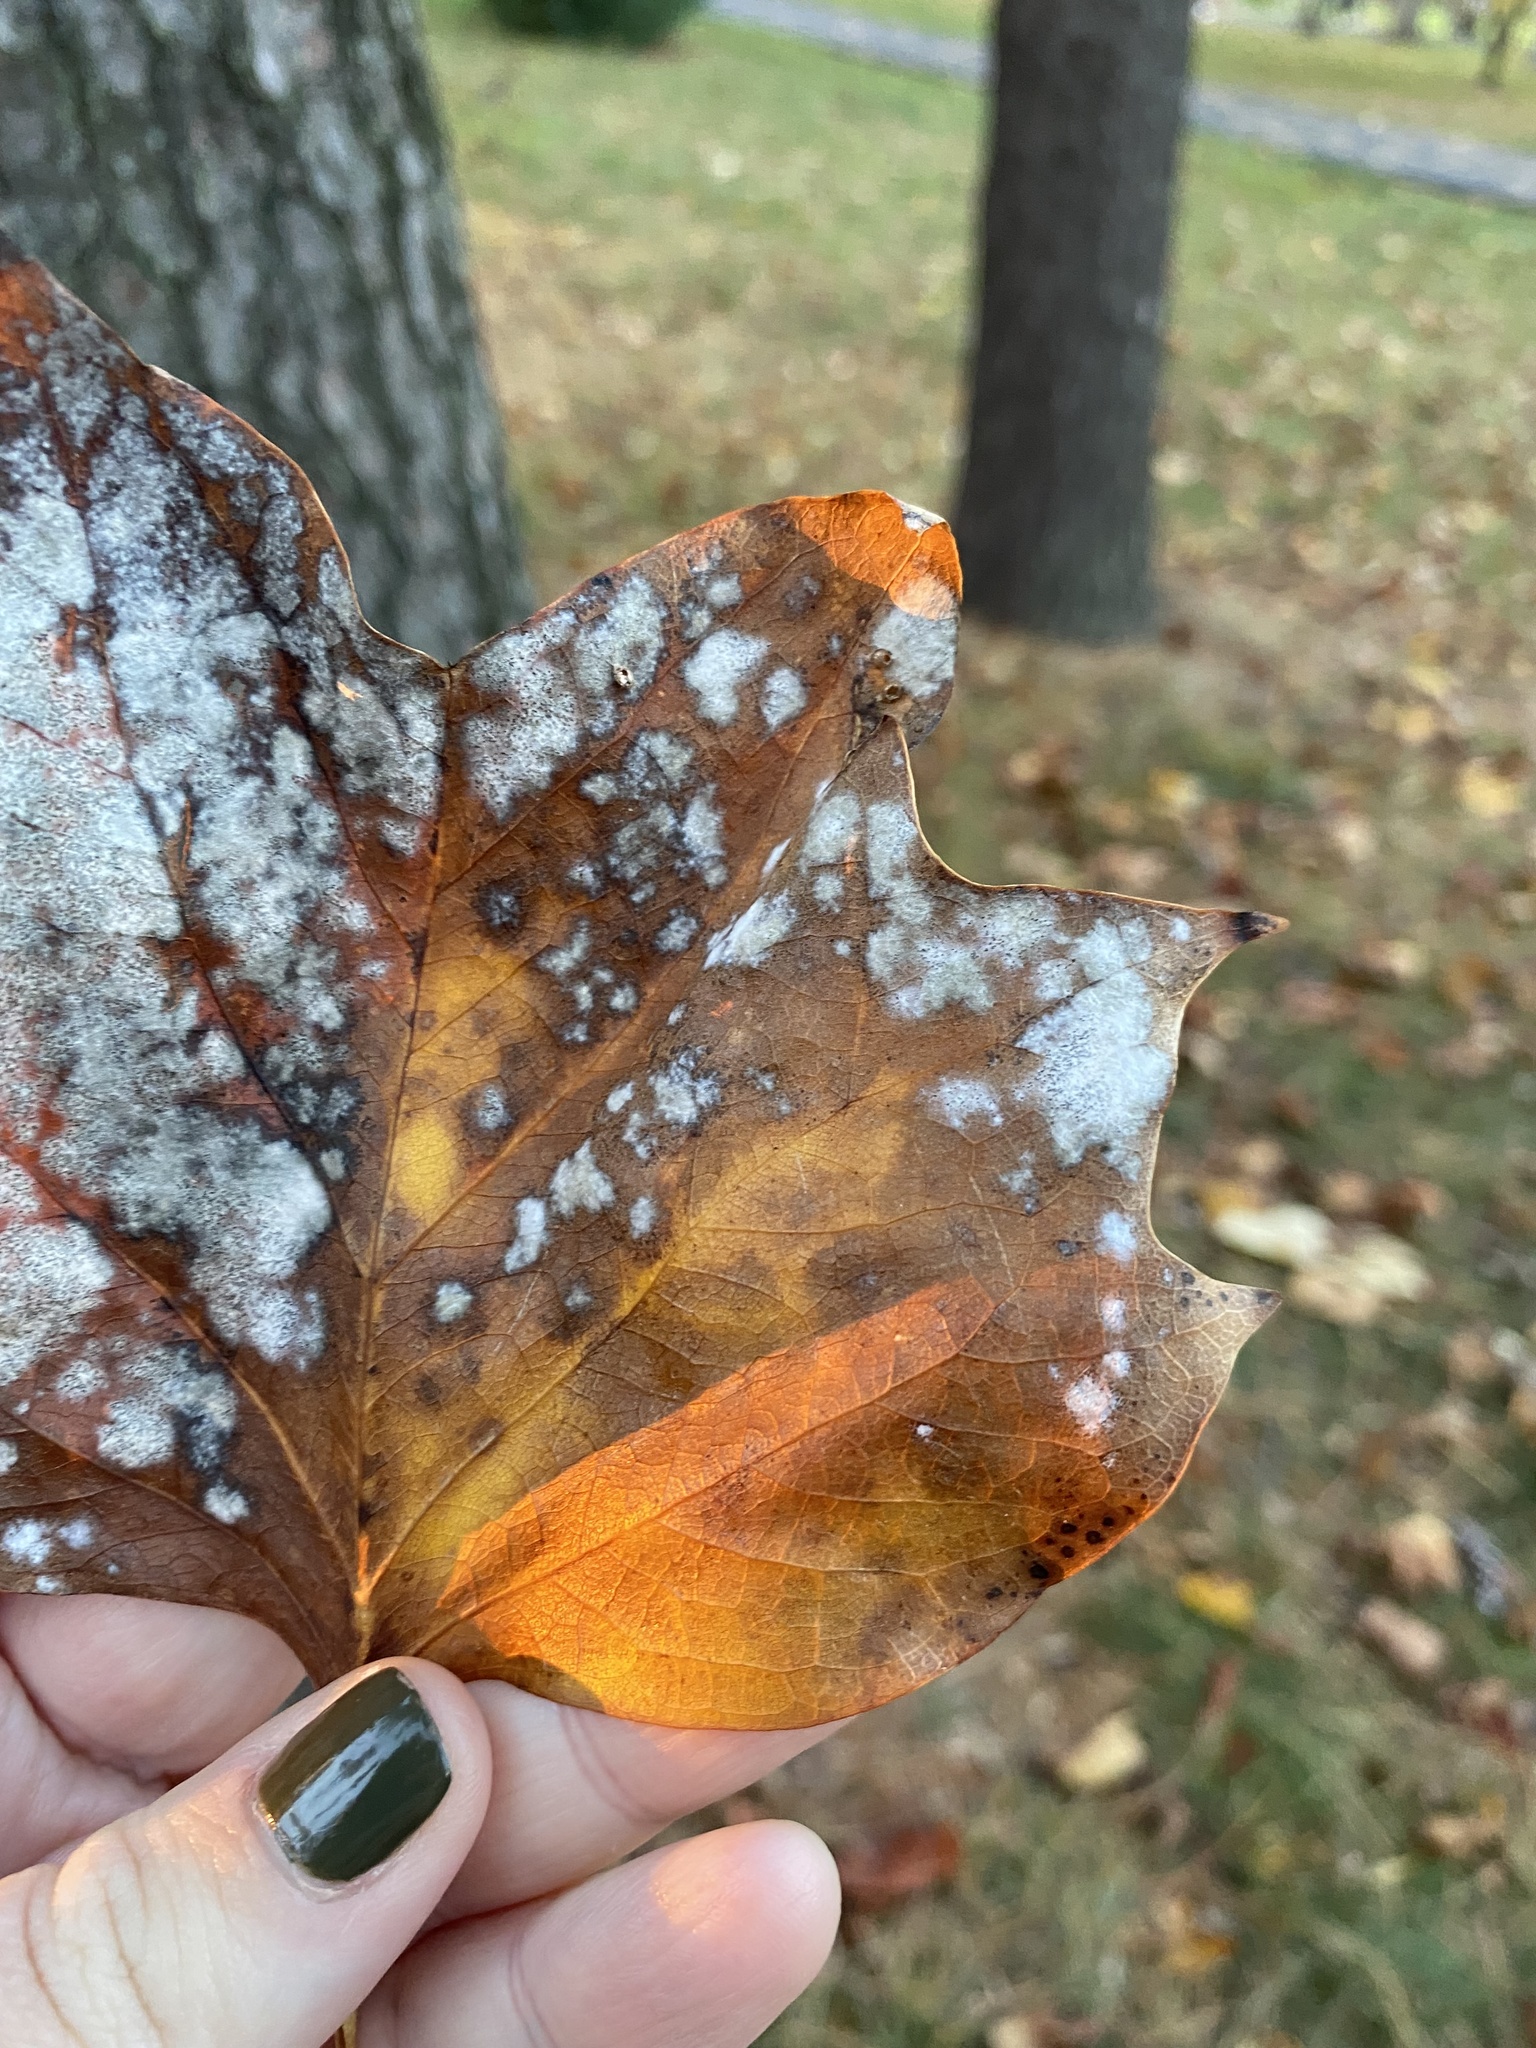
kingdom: Fungi
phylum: Ascomycota
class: Leotiomycetes
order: Helotiales
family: Erysiphaceae
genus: Erysiphe
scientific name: Erysiphe liriodendri
